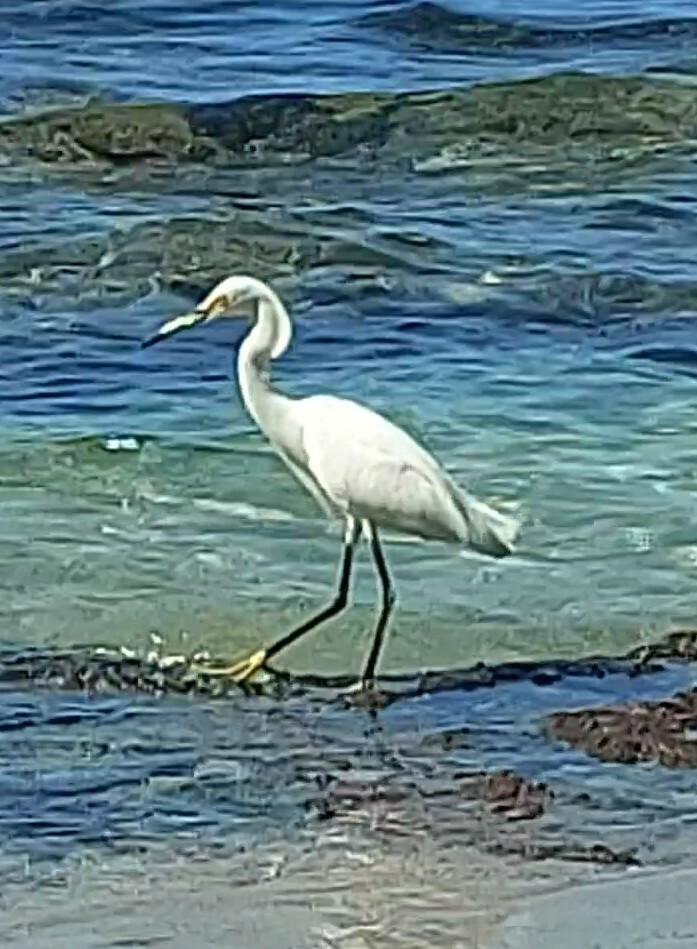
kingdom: Animalia
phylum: Chordata
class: Aves
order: Pelecaniformes
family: Ardeidae
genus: Egretta
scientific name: Egretta thula
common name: Snowy egret
